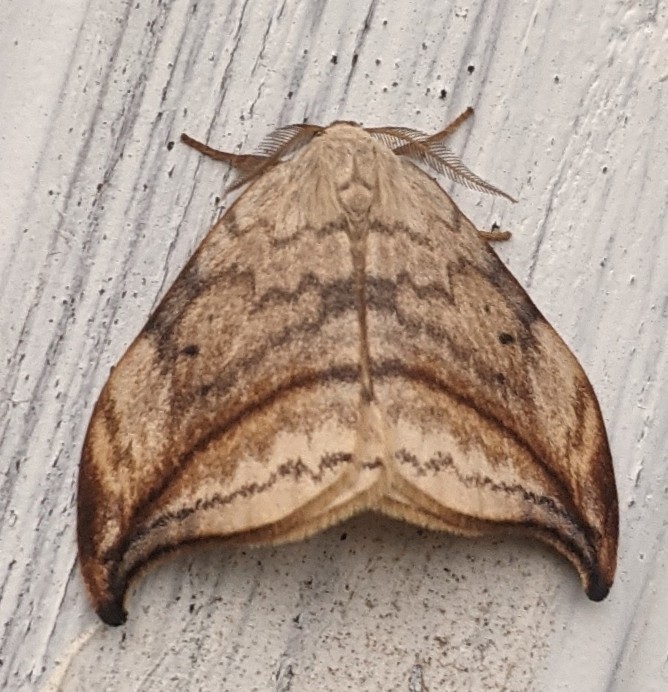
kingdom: Animalia
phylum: Arthropoda
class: Insecta
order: Lepidoptera
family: Drepanidae
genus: Drepana
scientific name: Drepana arcuata
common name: Arched hooktip moth
